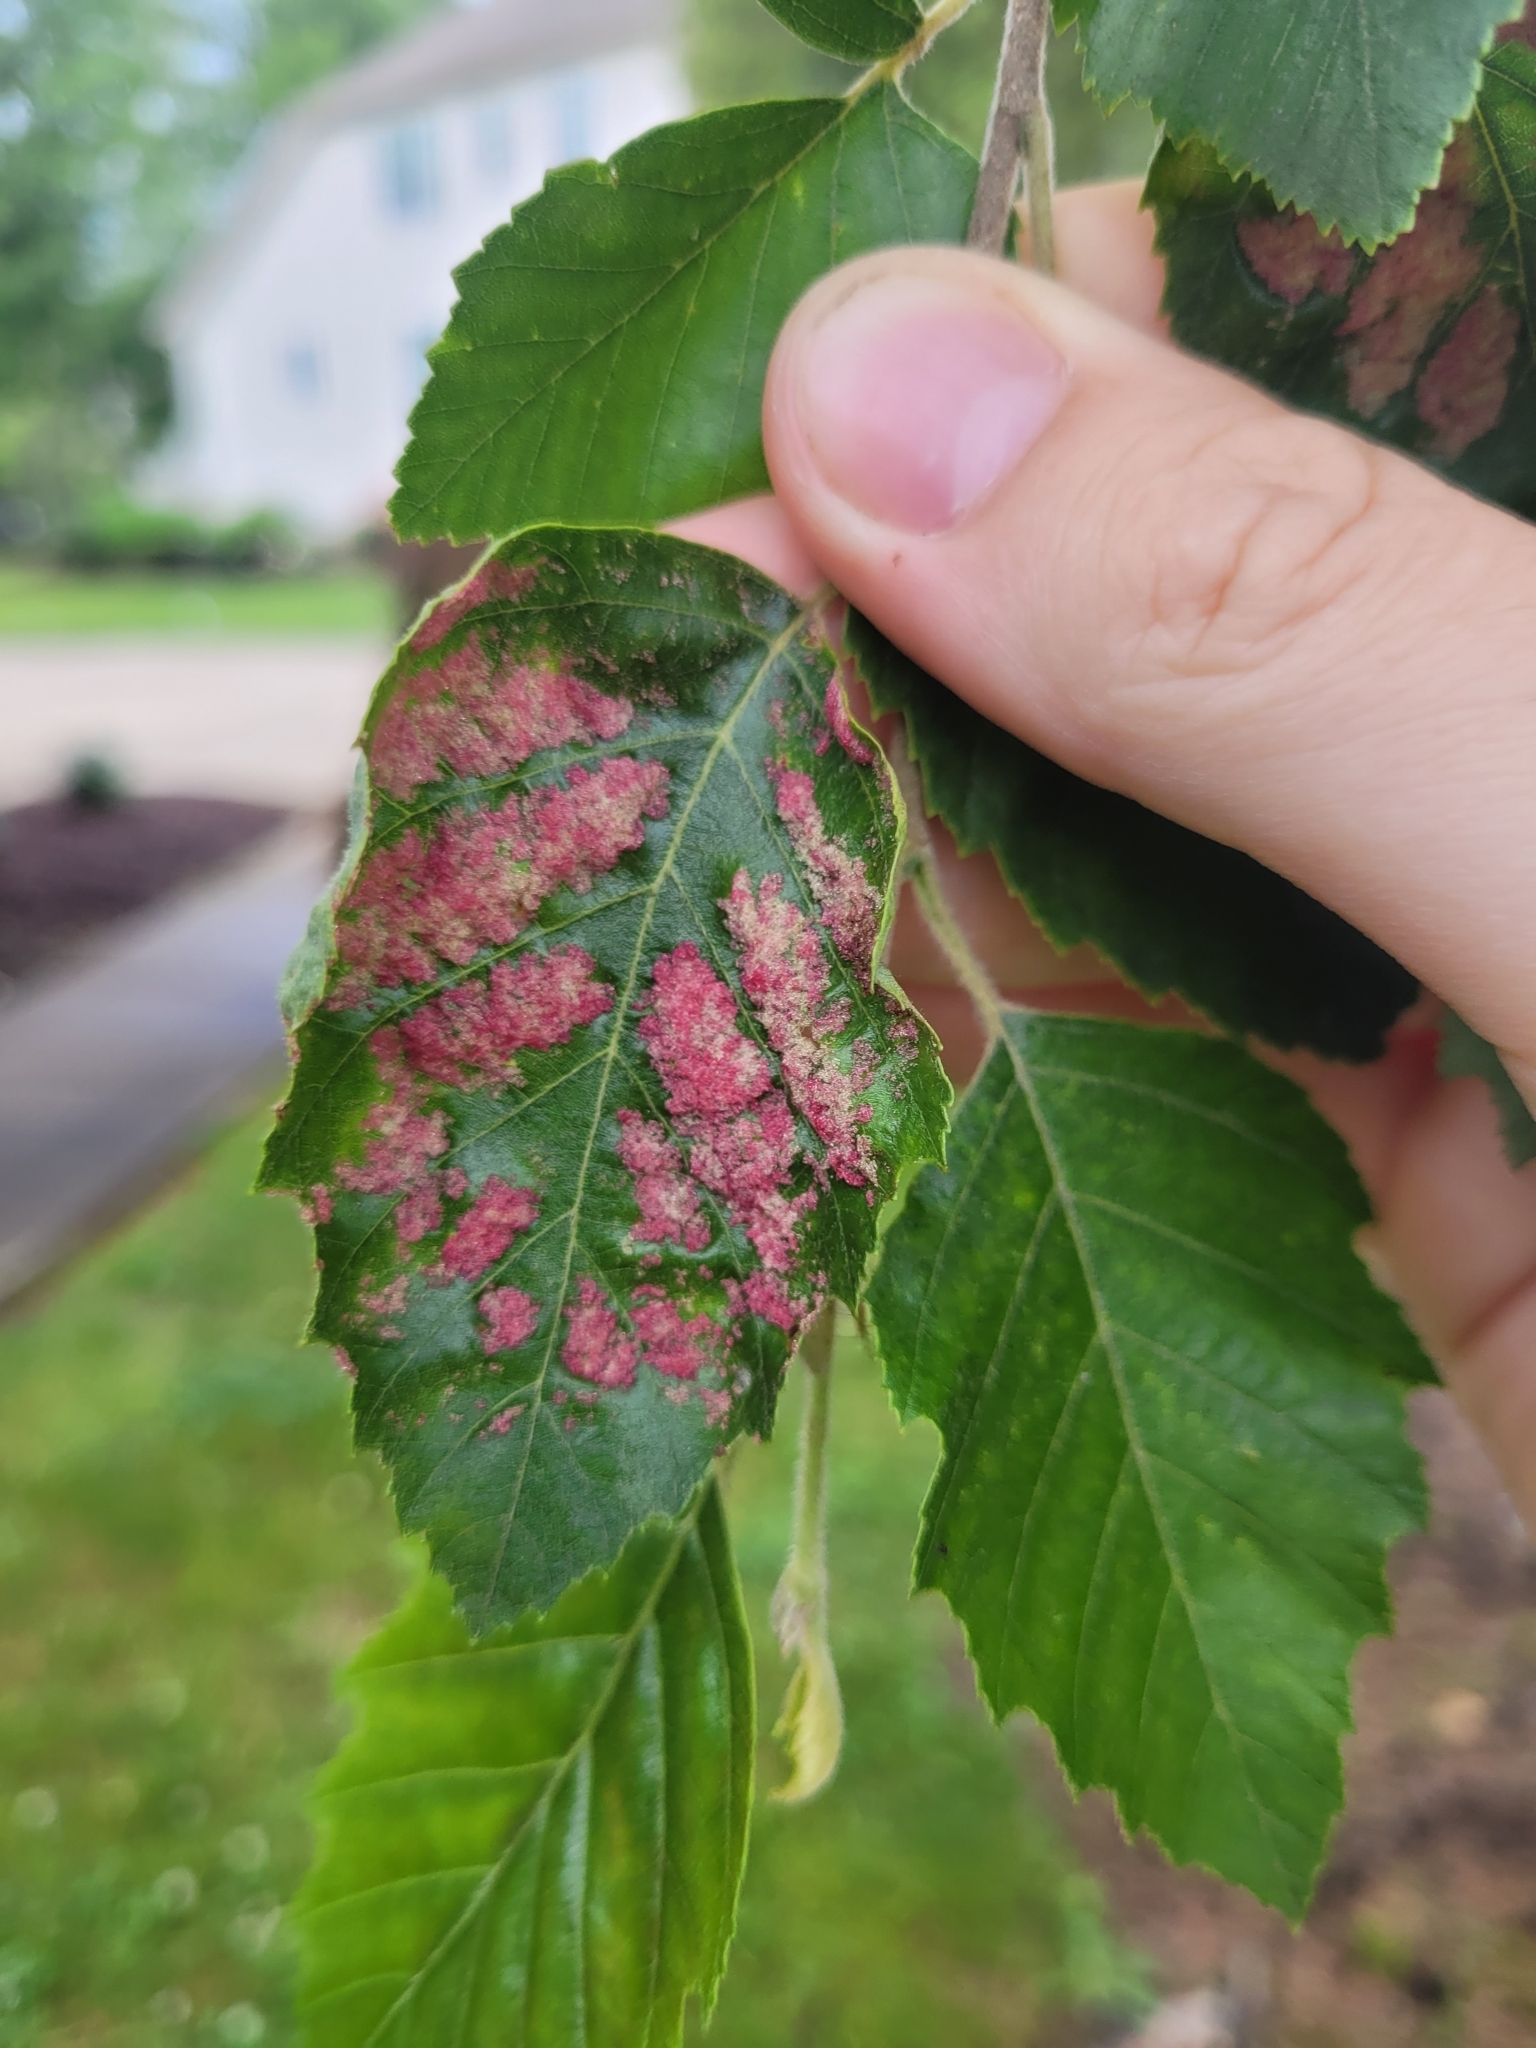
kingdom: Animalia
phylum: Arthropoda
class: Arachnida
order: Trombidiformes
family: Eriophyidae
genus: Acalitus
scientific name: Acalitus longisetosus
